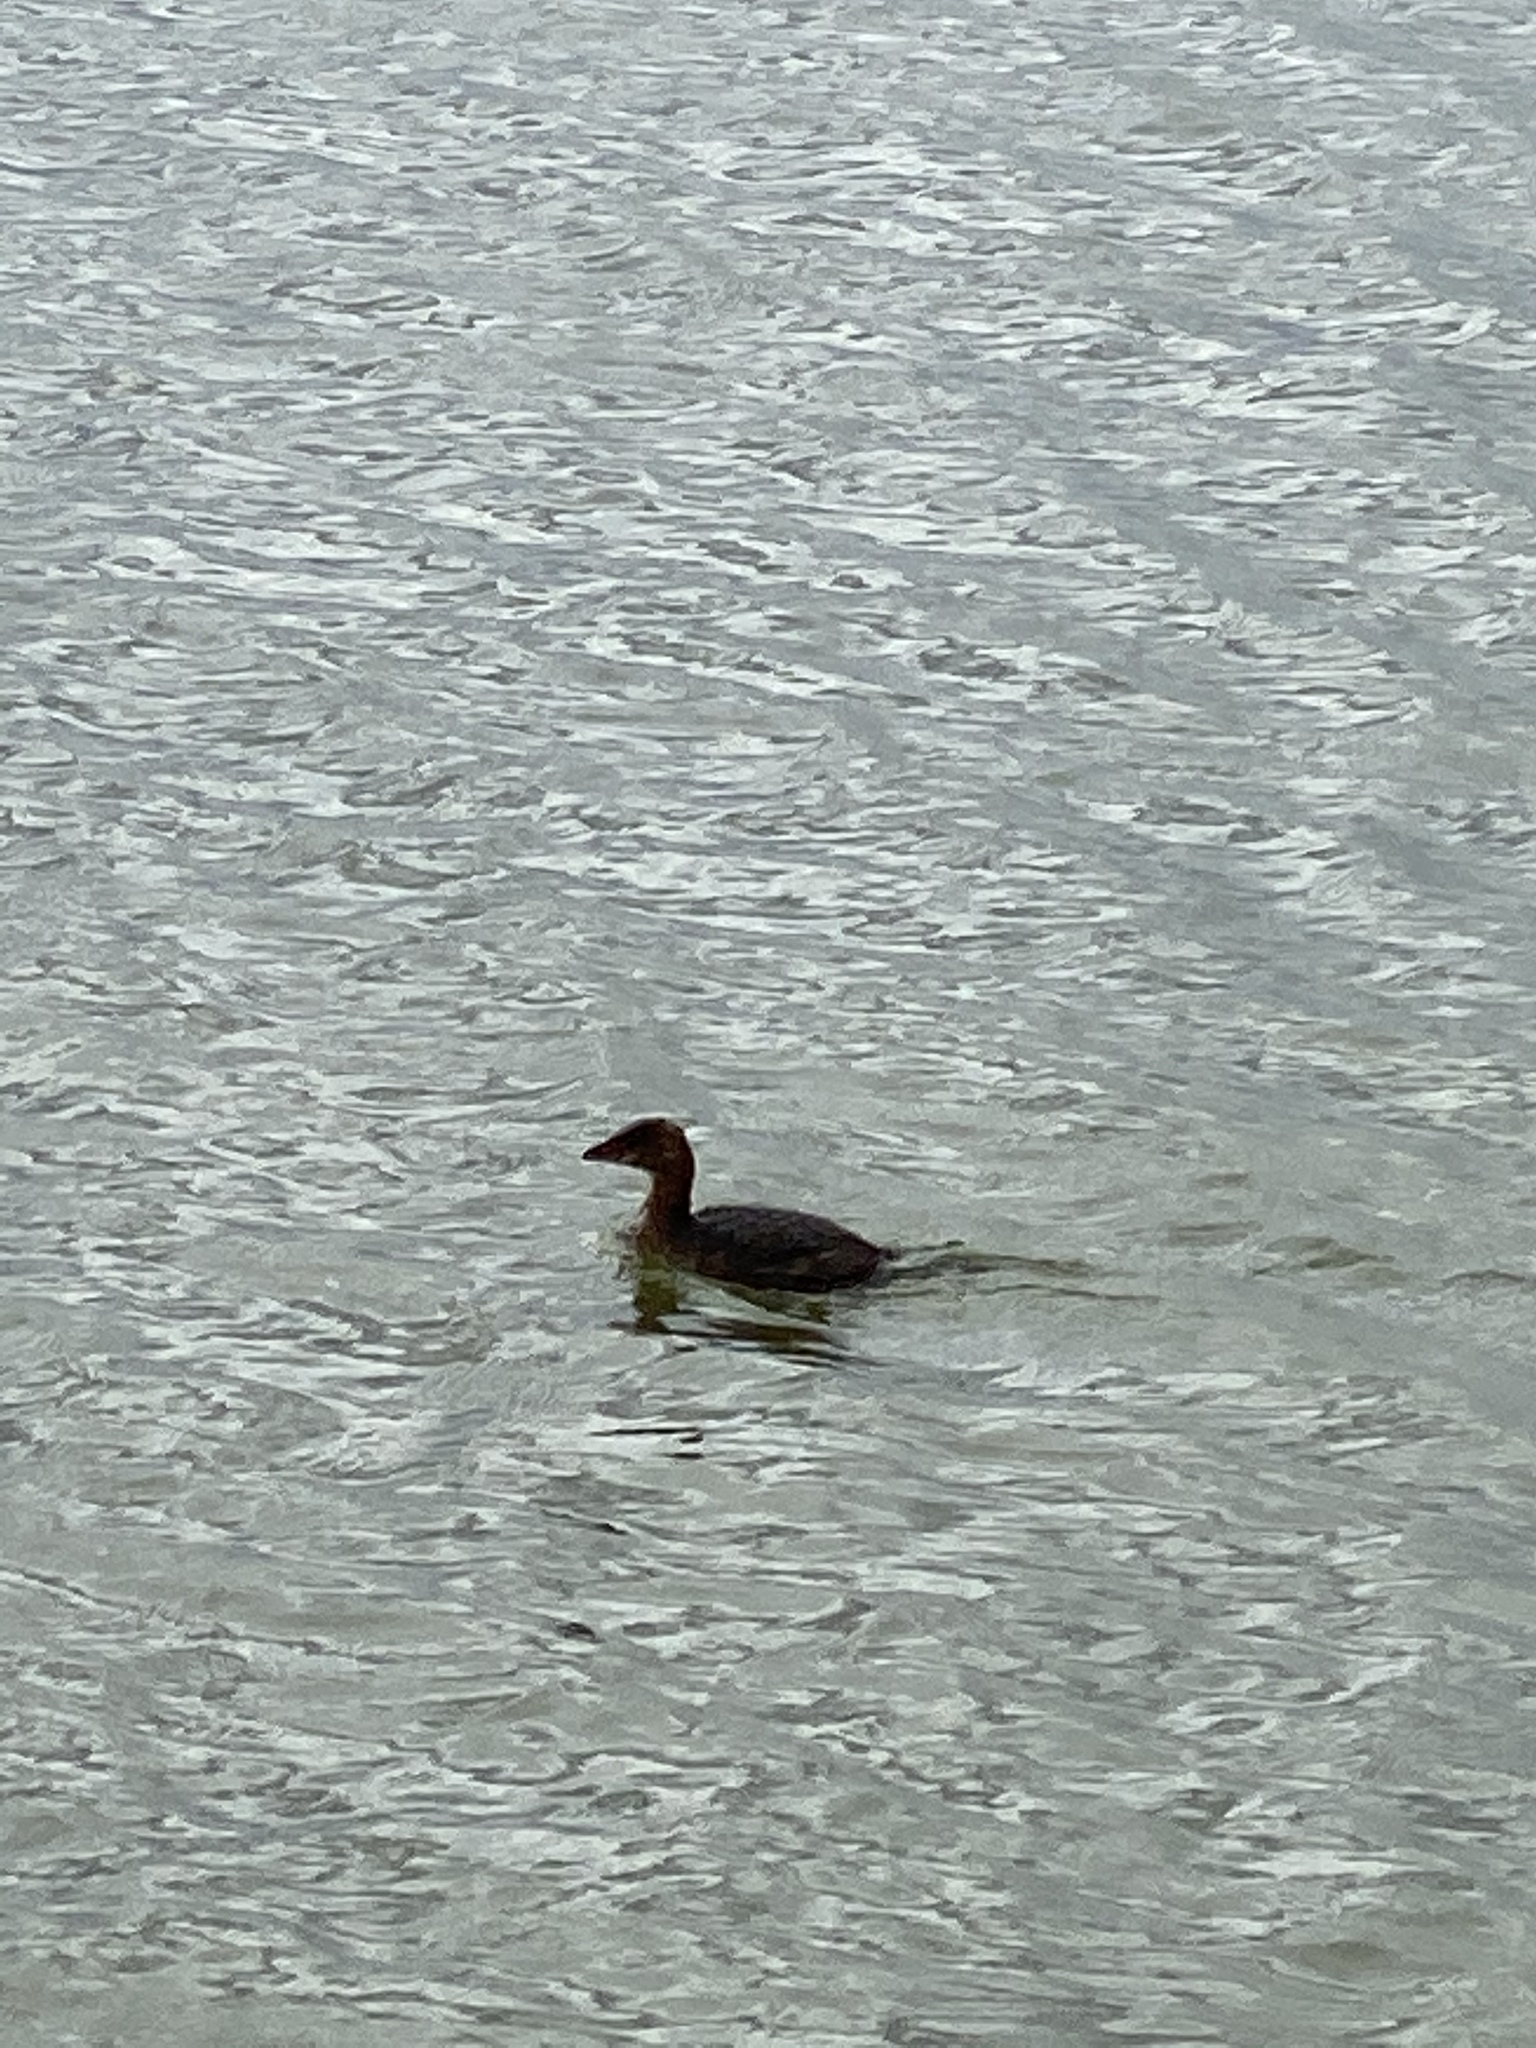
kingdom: Animalia
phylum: Chordata
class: Aves
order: Podicipediformes
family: Podicipedidae
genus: Podilymbus
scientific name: Podilymbus podiceps
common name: Pied-billed grebe
